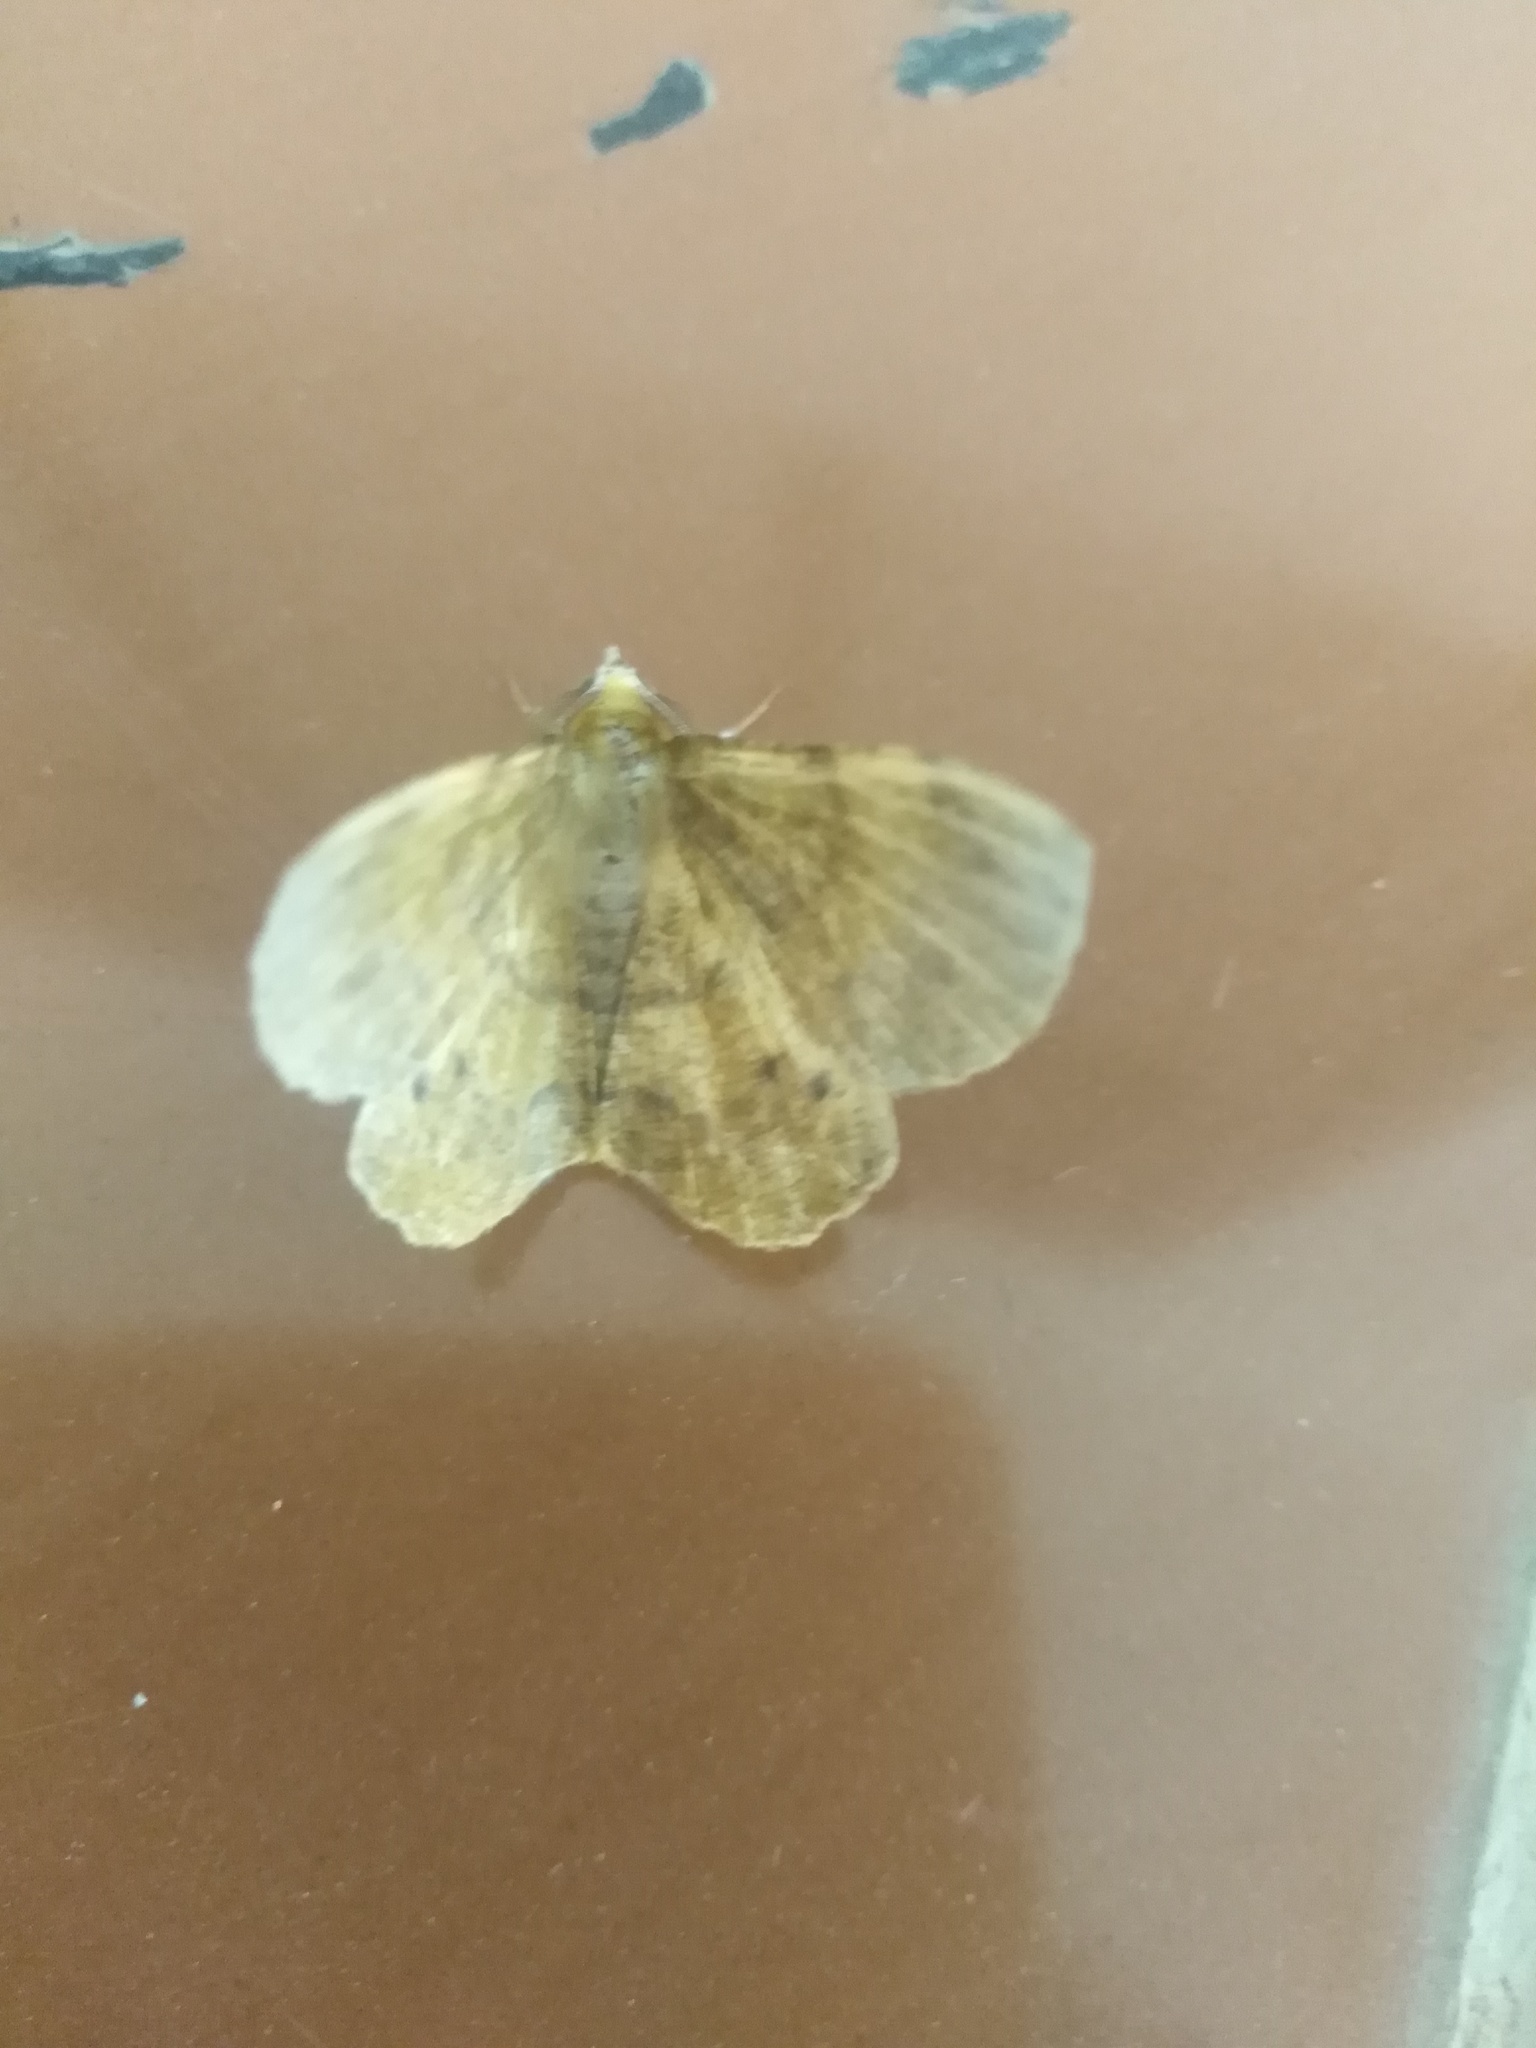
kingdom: Animalia
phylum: Arthropoda
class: Insecta
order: Lepidoptera
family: Geometridae
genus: Hyperythra
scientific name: Hyperythra lutea
